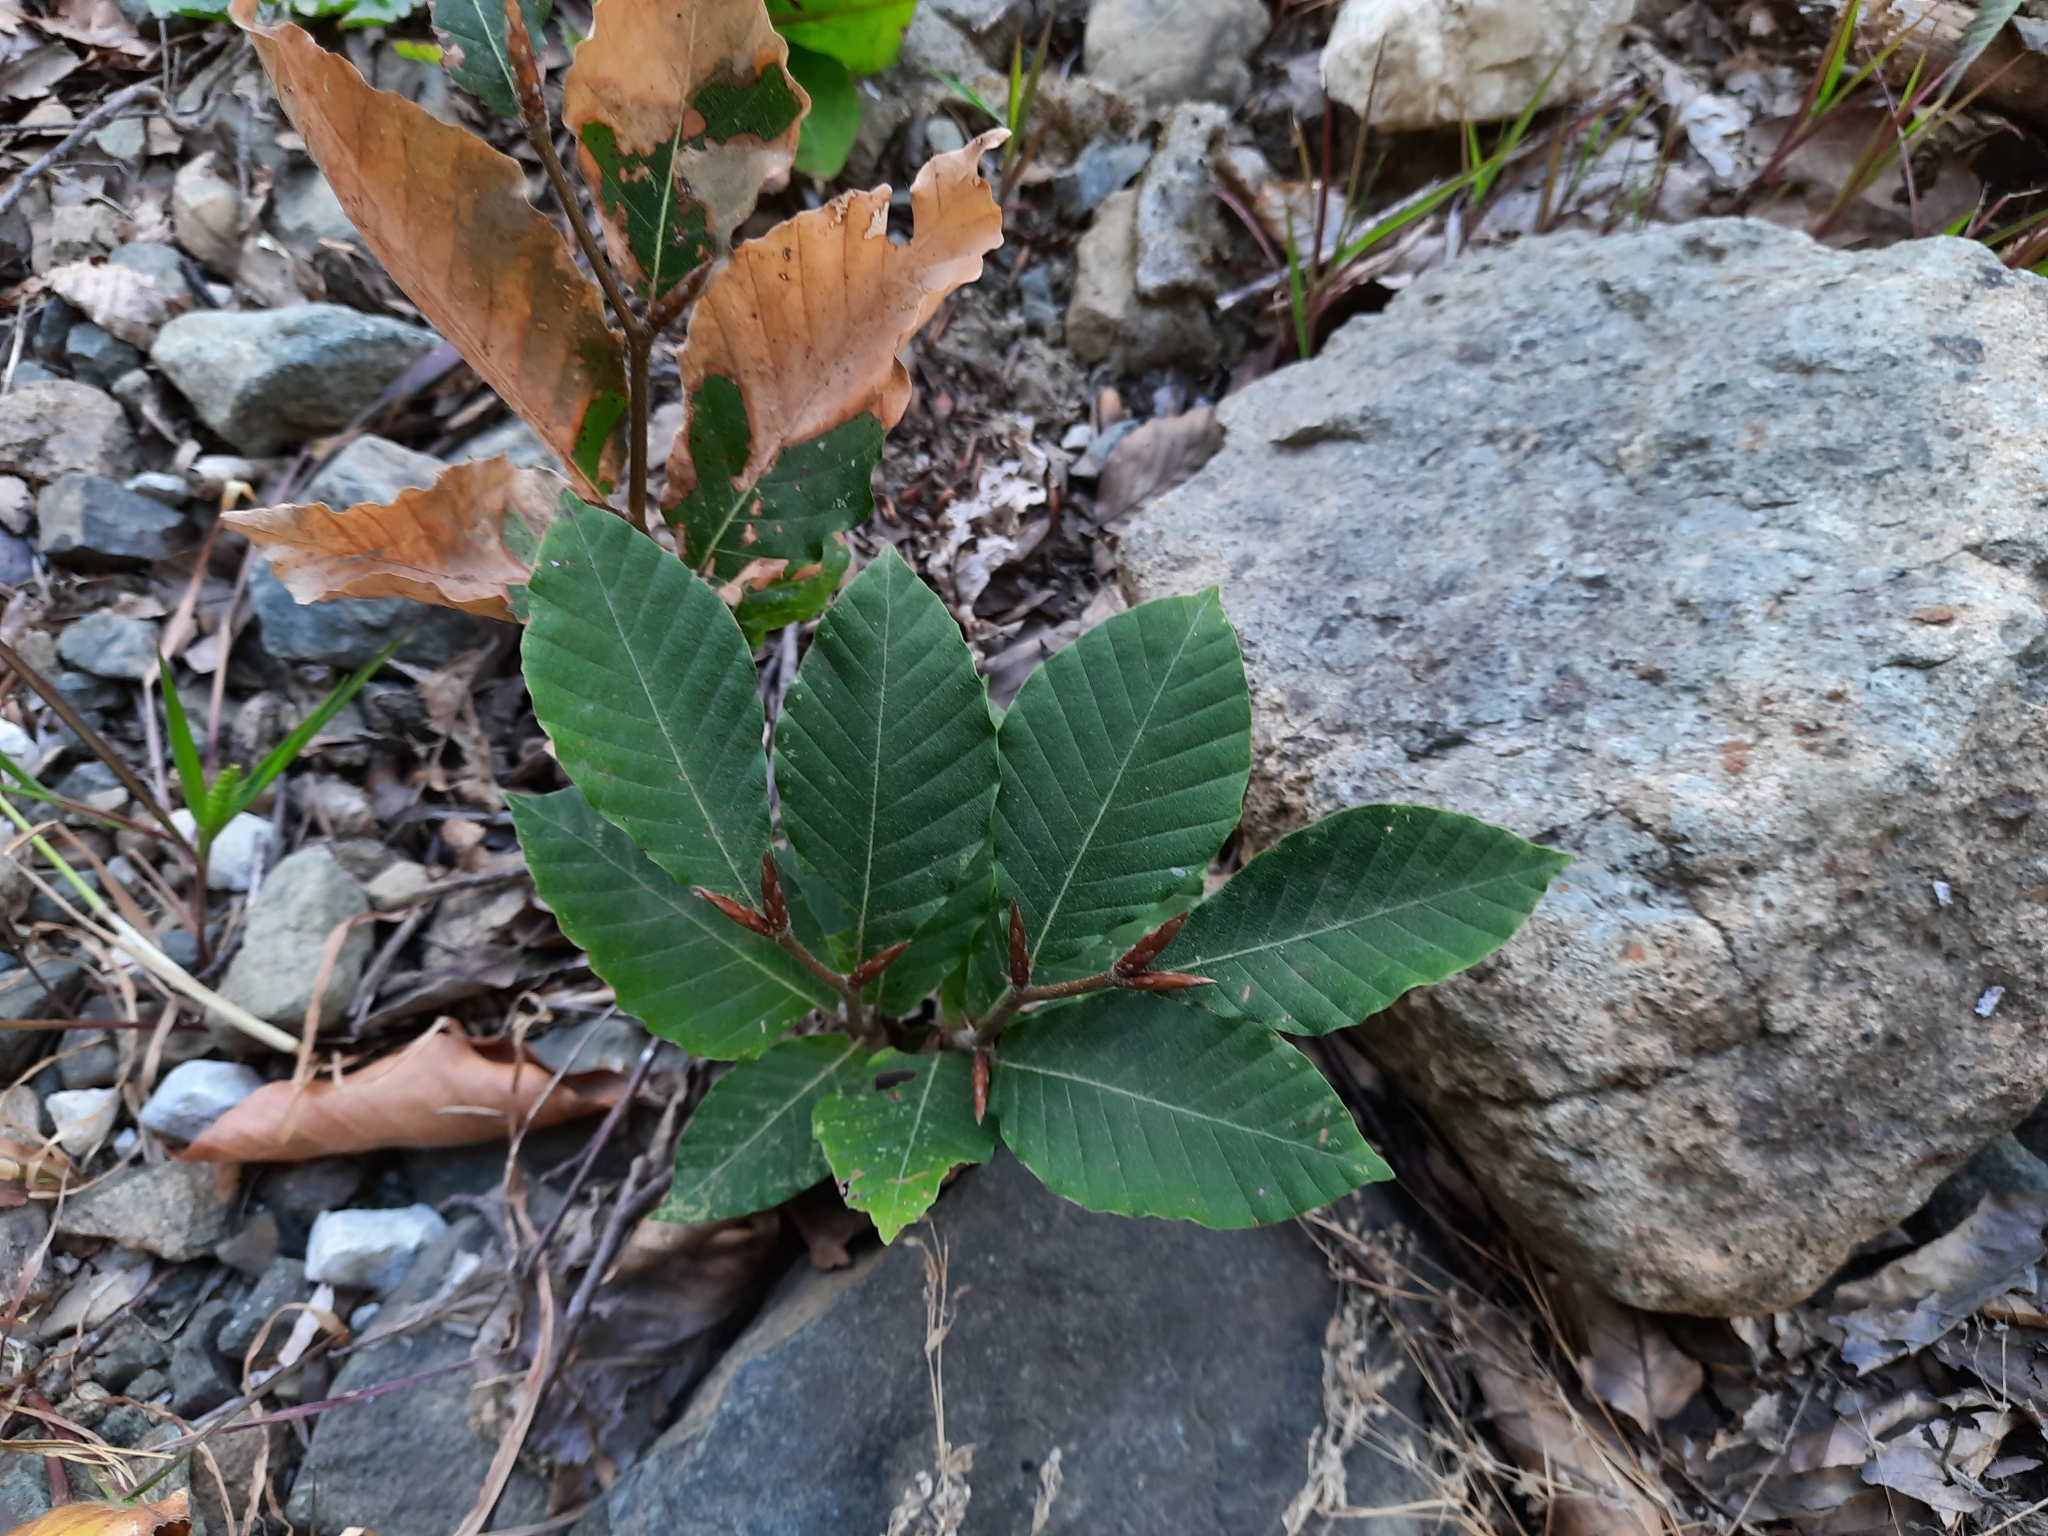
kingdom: Plantae
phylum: Tracheophyta
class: Magnoliopsida
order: Fagales
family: Fagaceae
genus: Fagus
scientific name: Fagus orientalis
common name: Oriental beech
